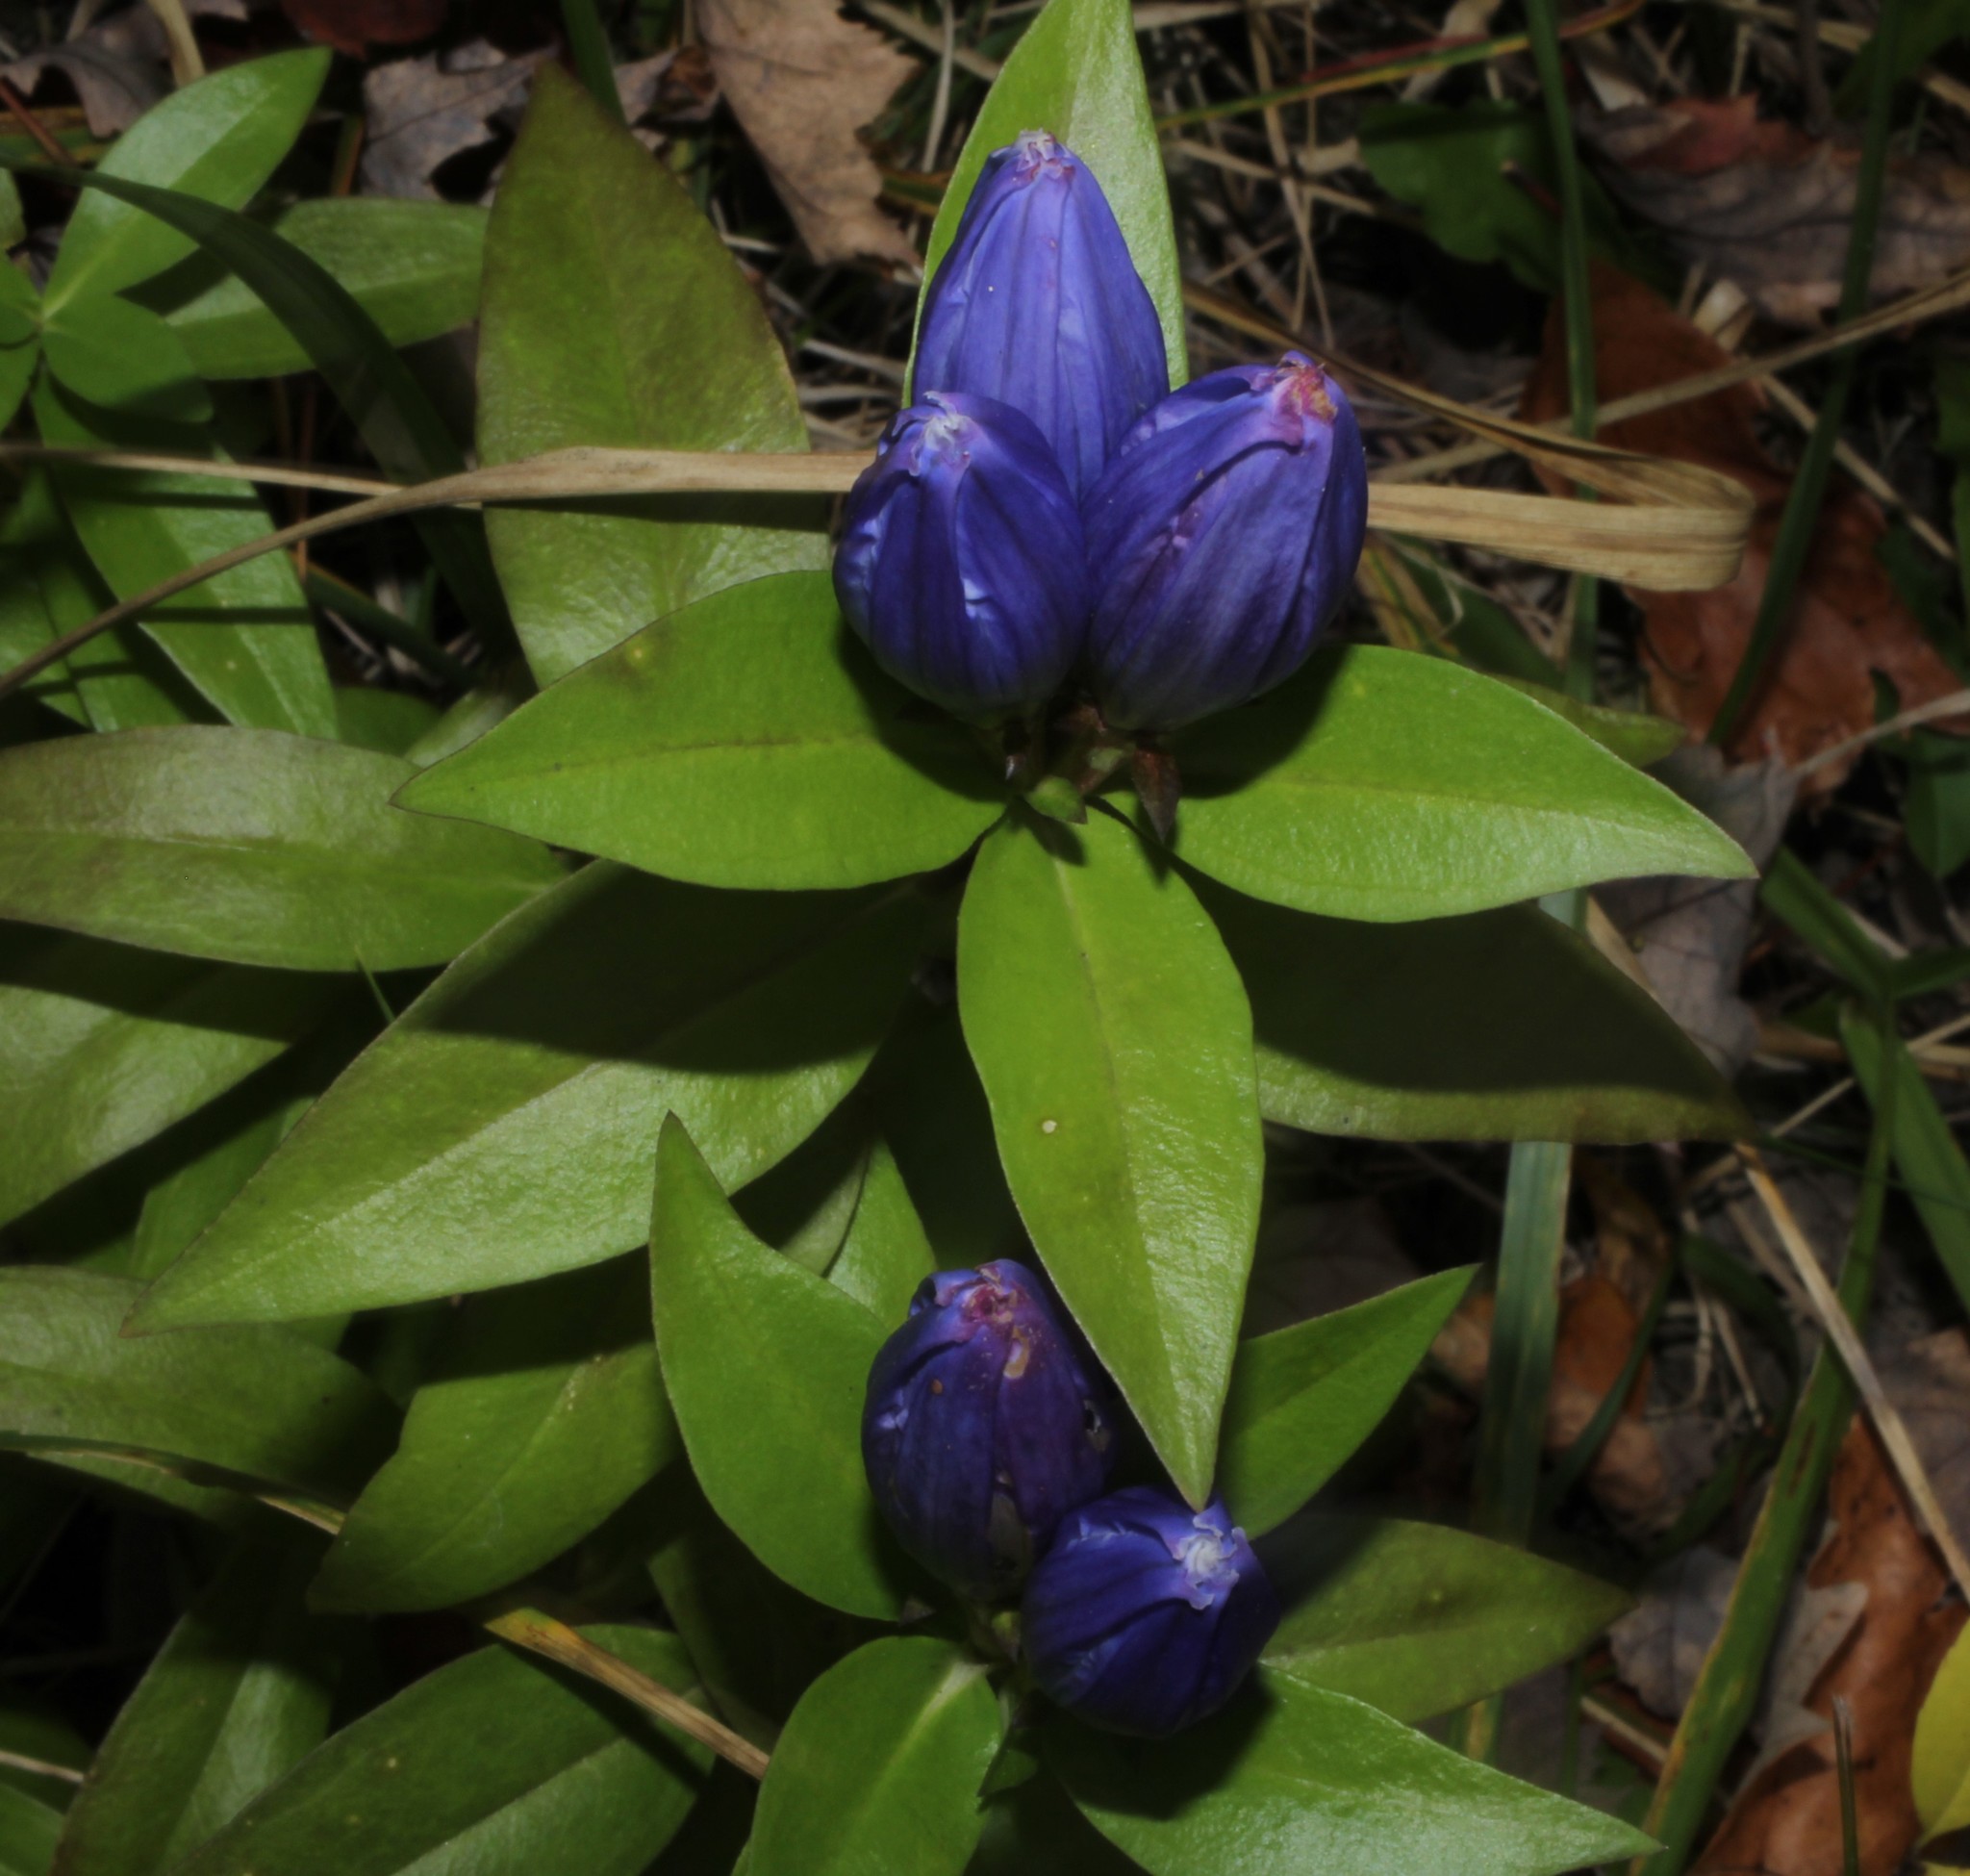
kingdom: Plantae
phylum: Tracheophyta
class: Magnoliopsida
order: Gentianales
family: Gentianaceae
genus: Gentiana
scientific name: Gentiana andrewsii
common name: Bottle gentian
